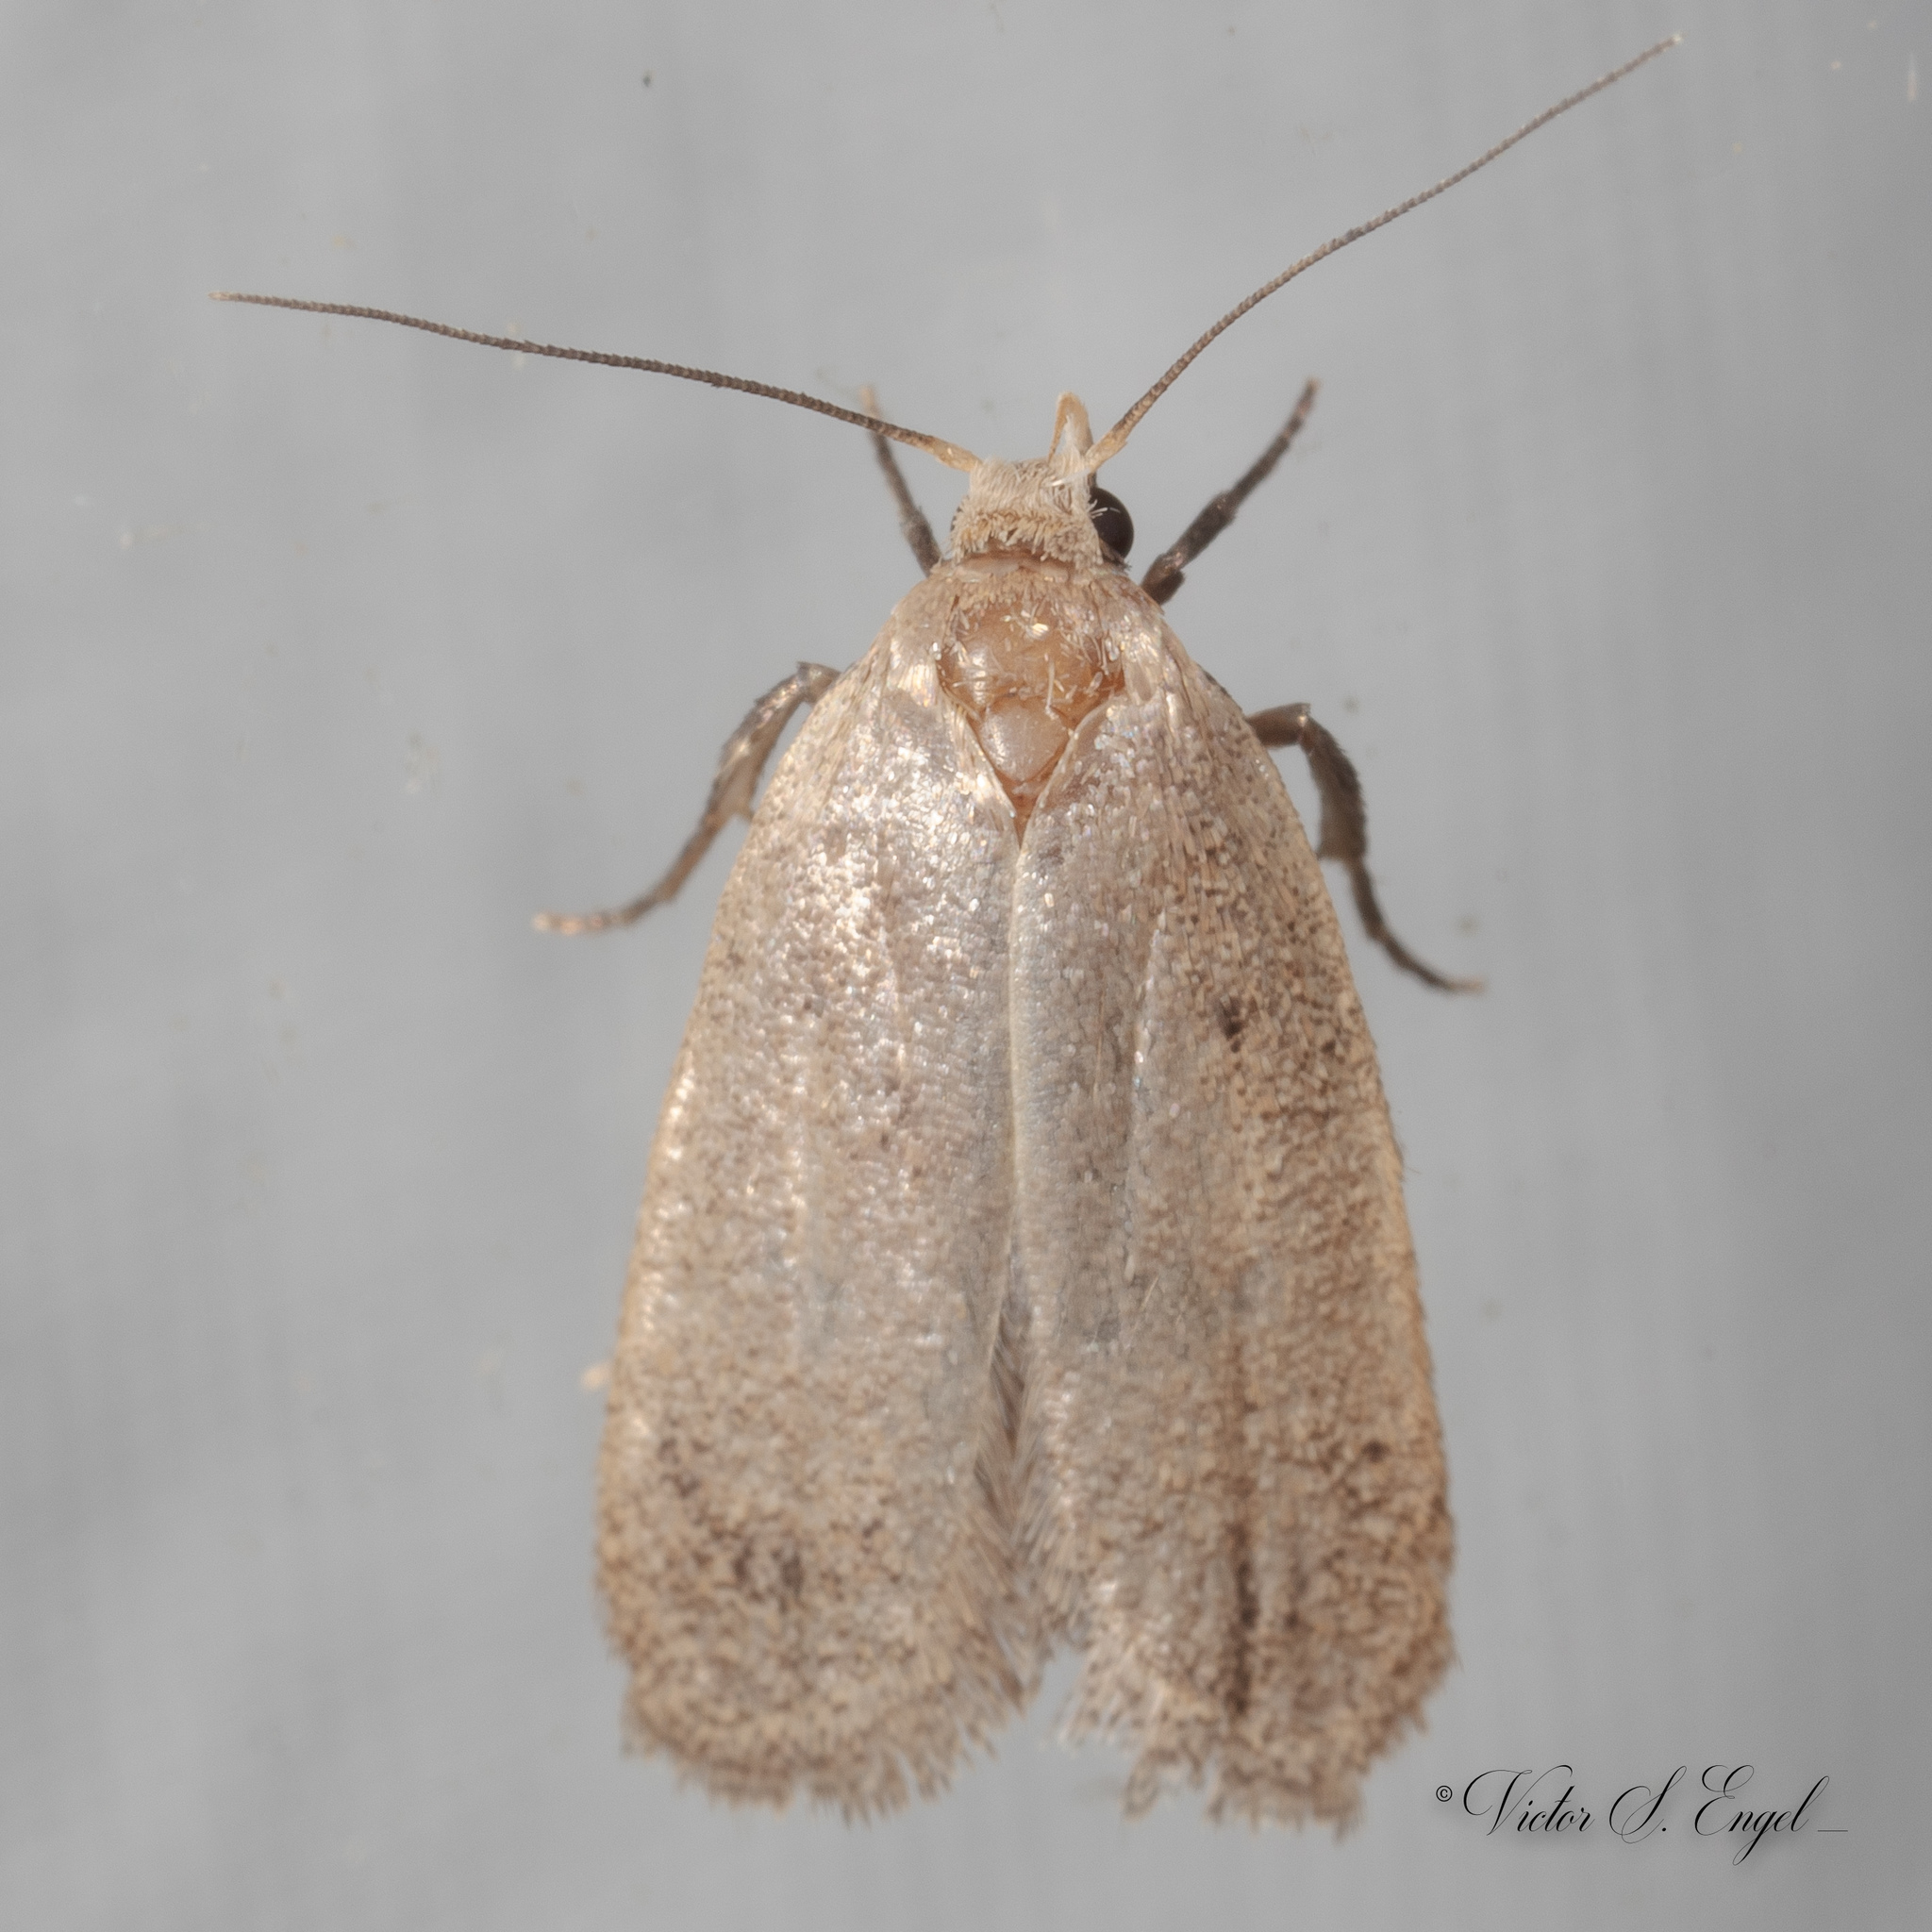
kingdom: Animalia
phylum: Arthropoda
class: Insecta
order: Lepidoptera
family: Oecophoridae
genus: Inga
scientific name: Inga obscuromaculella
